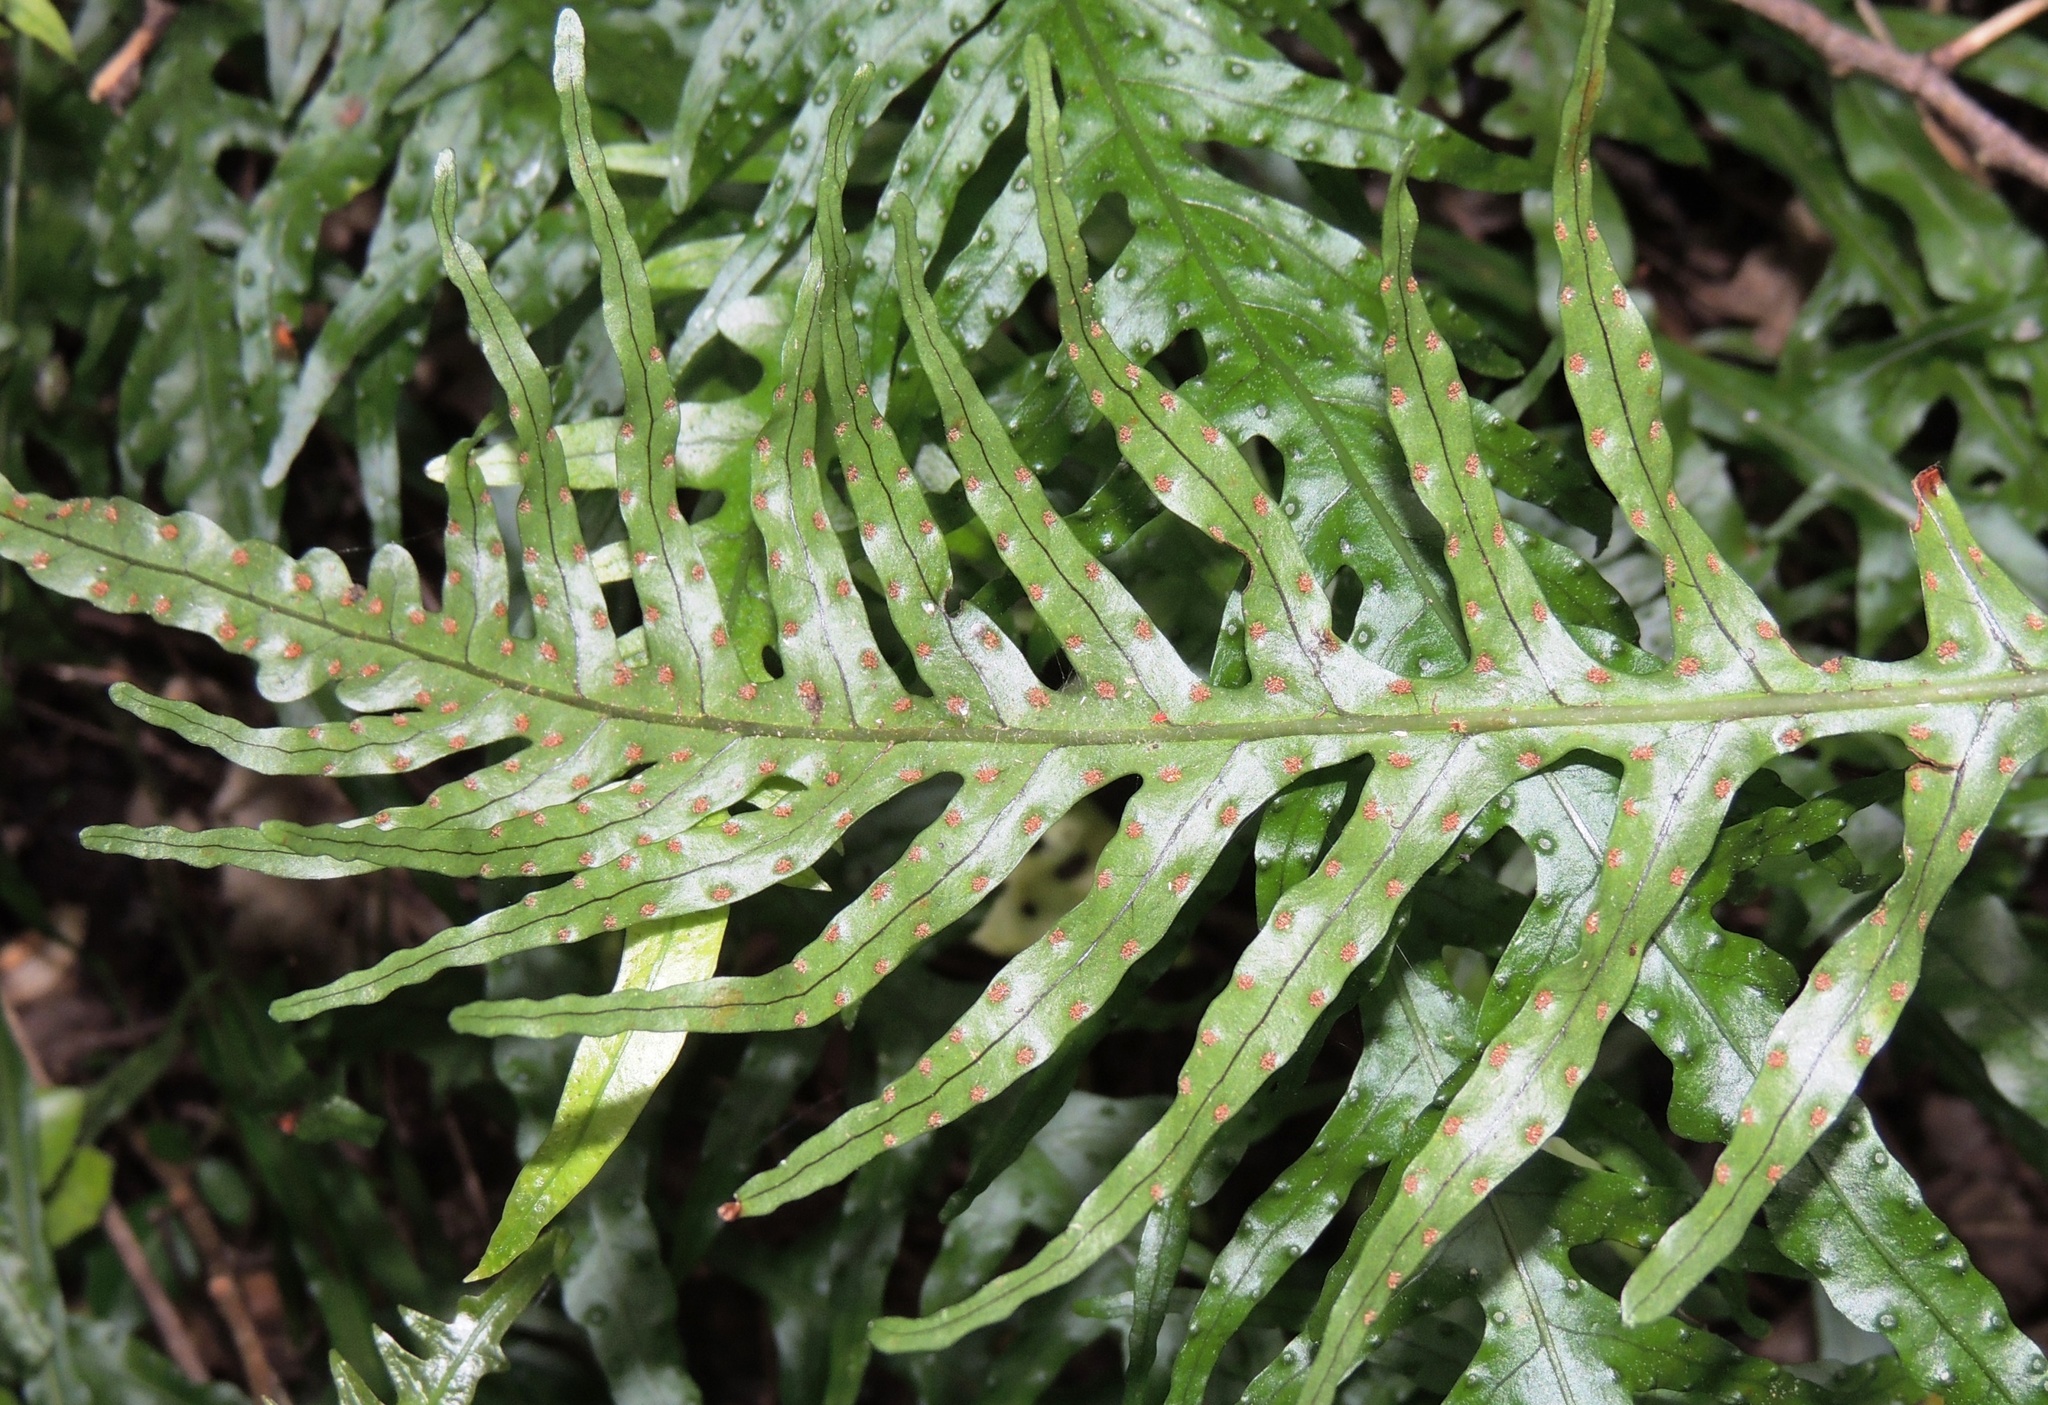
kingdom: Plantae
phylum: Tracheophyta
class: Polypodiopsida
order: Polypodiales
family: Polypodiaceae
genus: Lecanopteris
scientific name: Lecanopteris scandens
